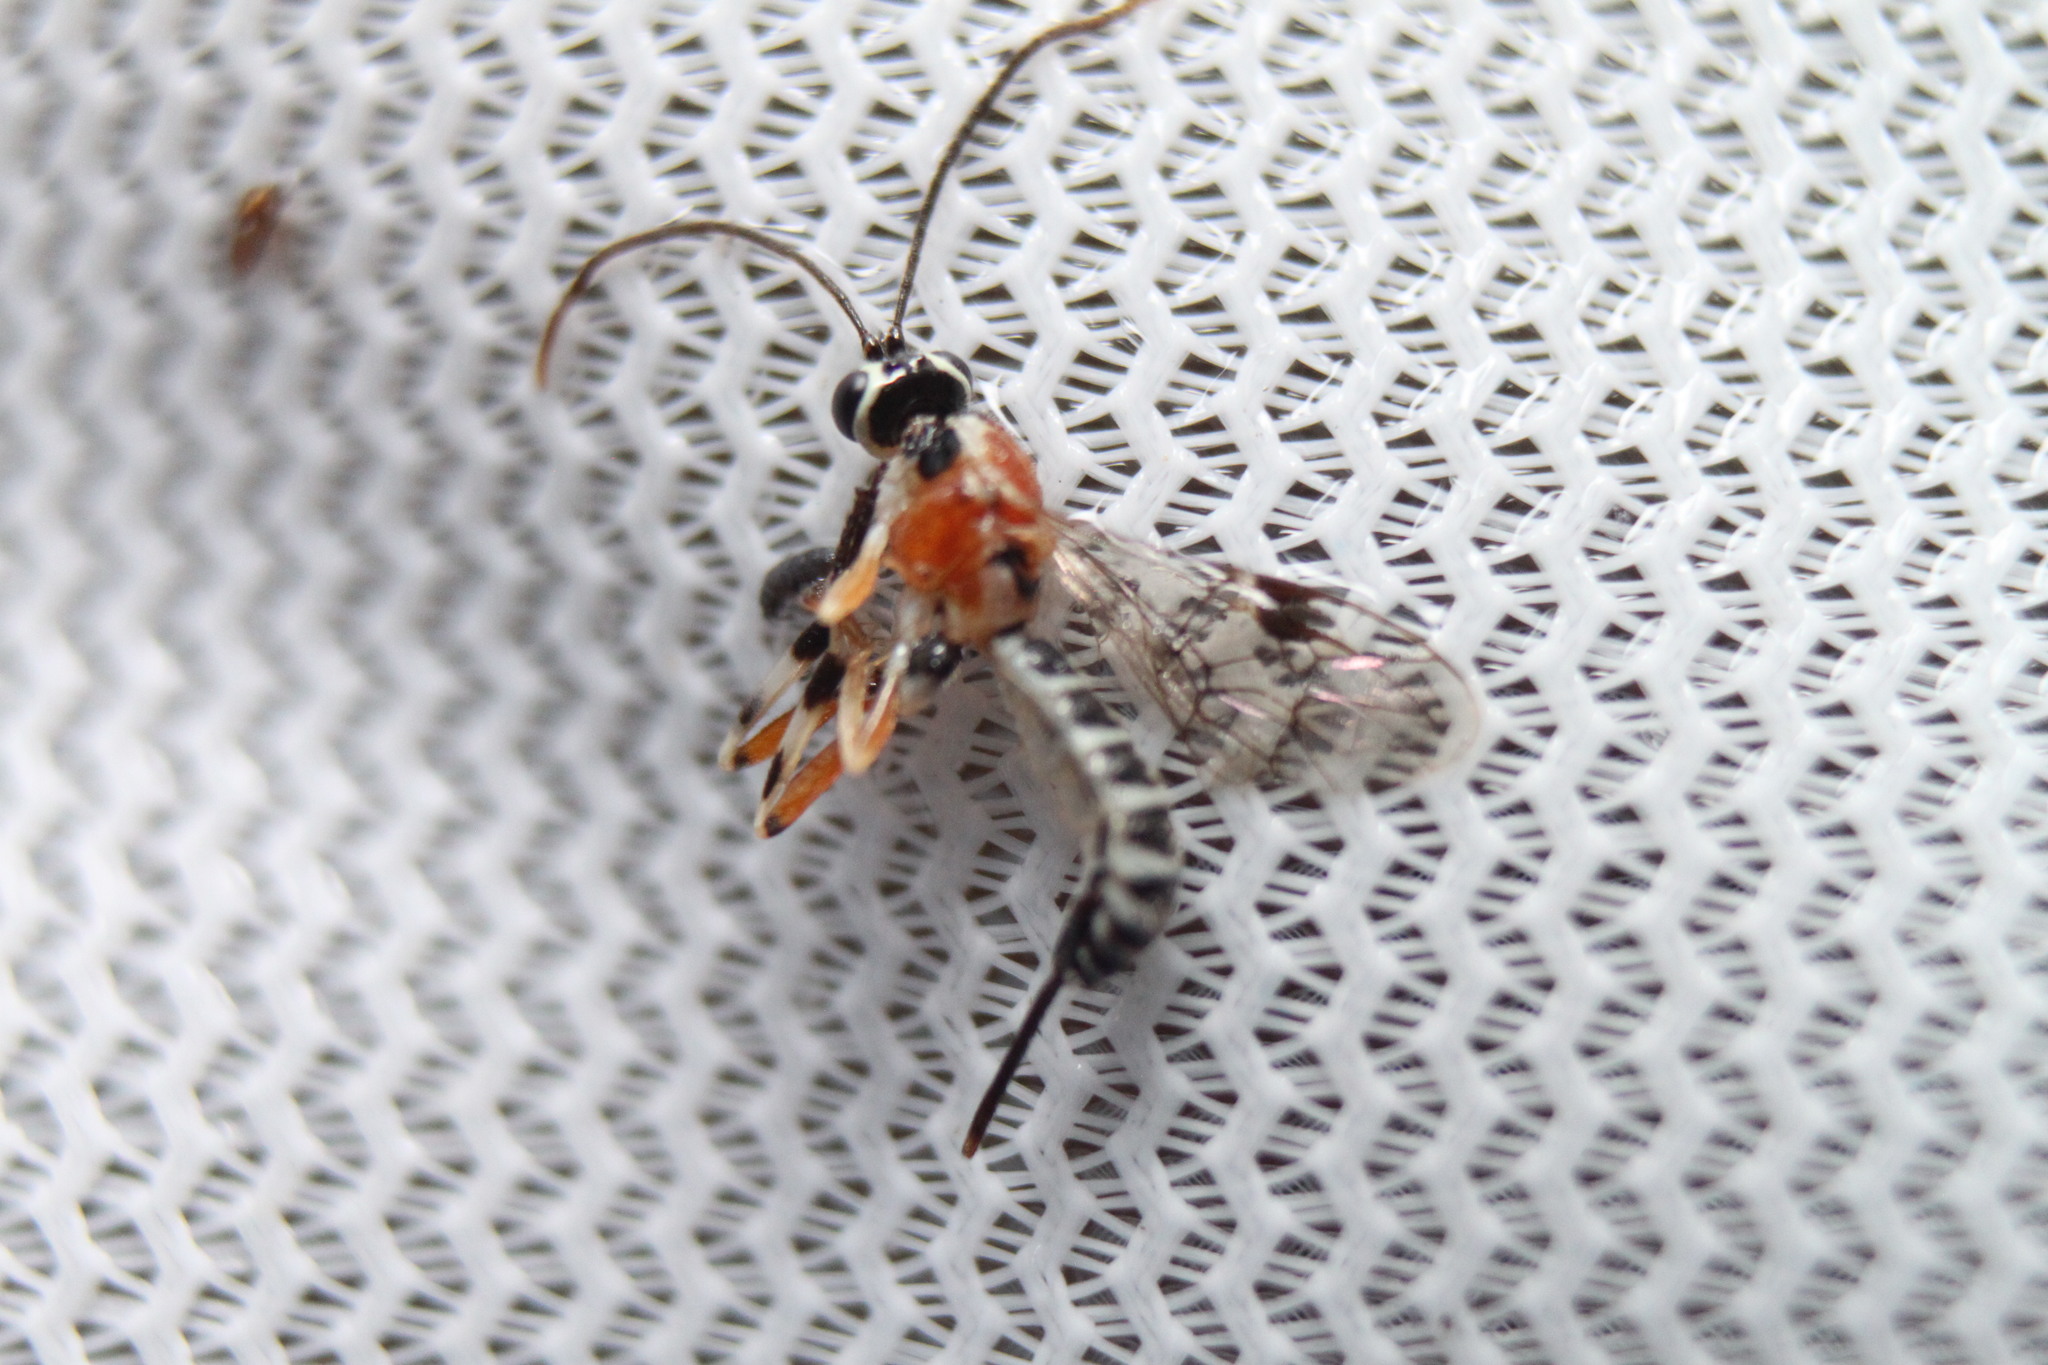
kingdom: Animalia
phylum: Arthropoda
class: Insecta
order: Hymenoptera
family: Ichneumonidae
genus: Lycorina
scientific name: Lycorina scitula
